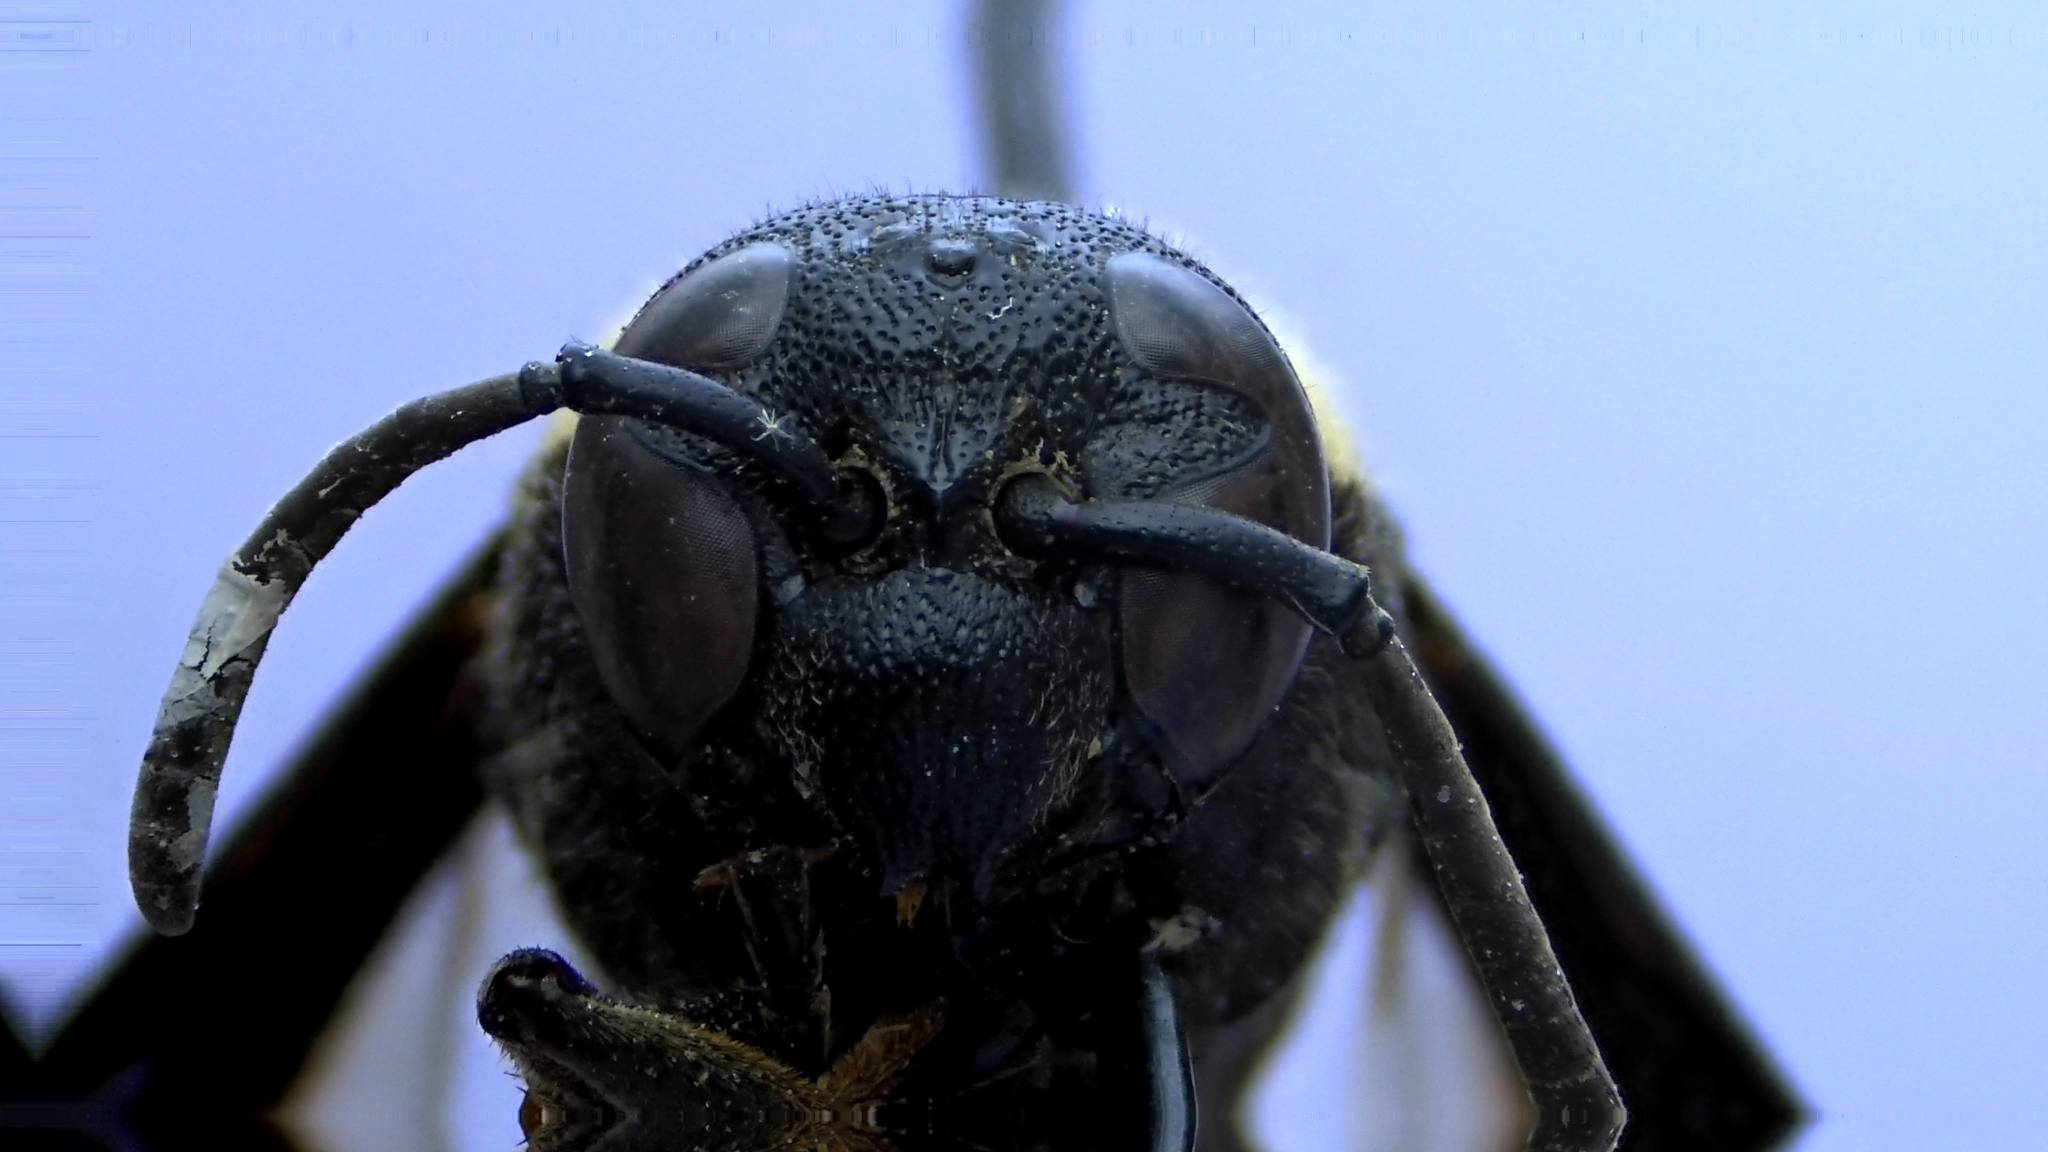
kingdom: Animalia
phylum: Arthropoda
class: Insecta
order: Hymenoptera
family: Eumenidae
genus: Monobia
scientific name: Monobia quadridens
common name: Four-toothed mason wasp
